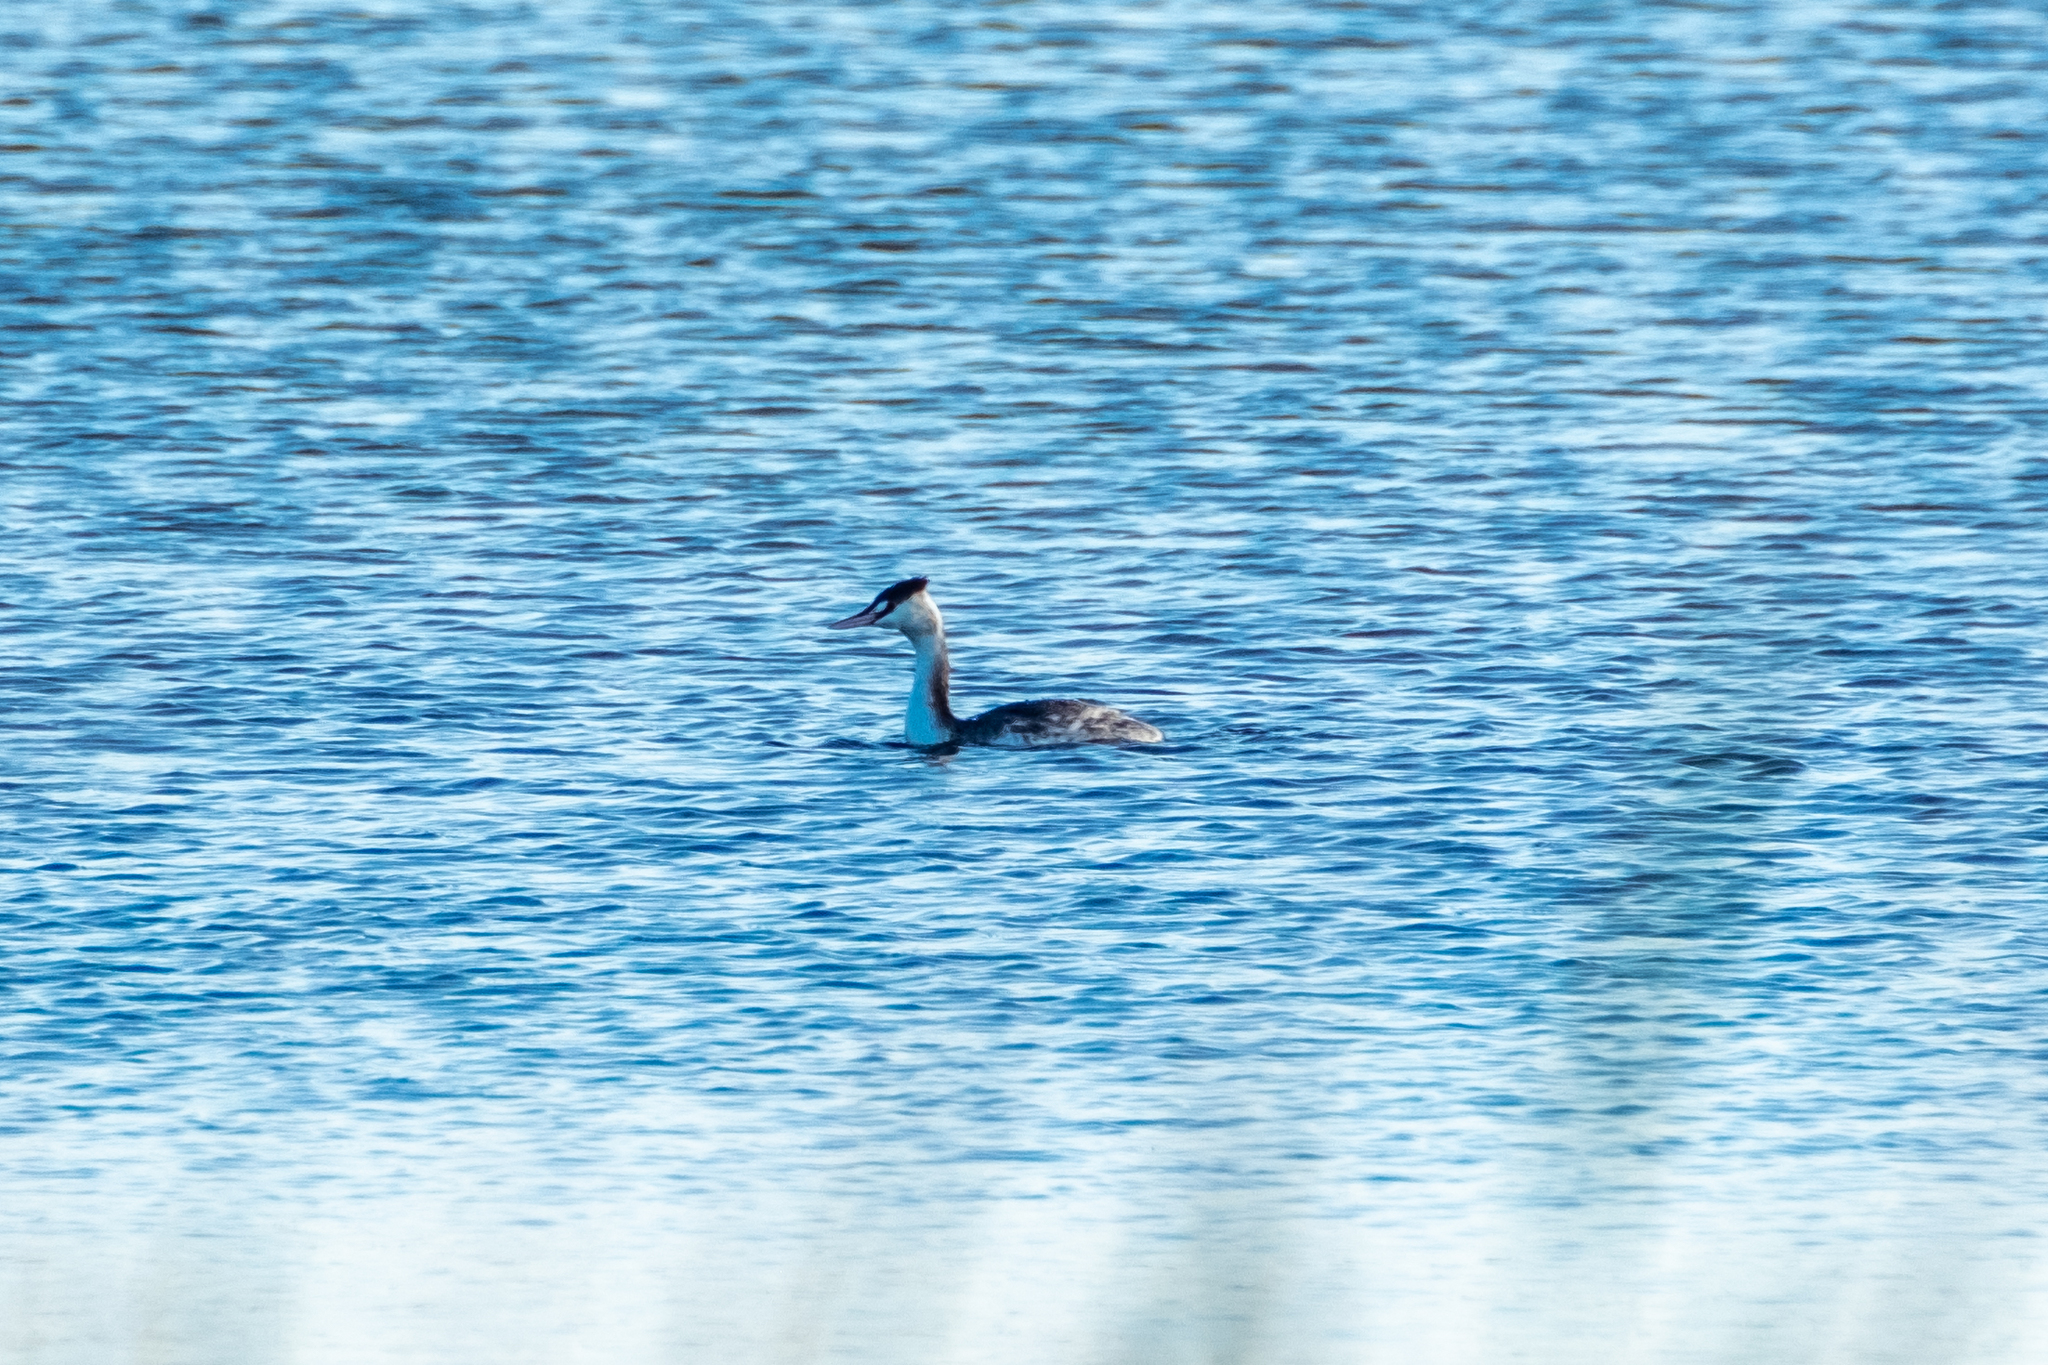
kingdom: Animalia
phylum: Chordata
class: Aves
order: Podicipediformes
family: Podicipedidae
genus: Podiceps
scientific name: Podiceps cristatus
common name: Great crested grebe
